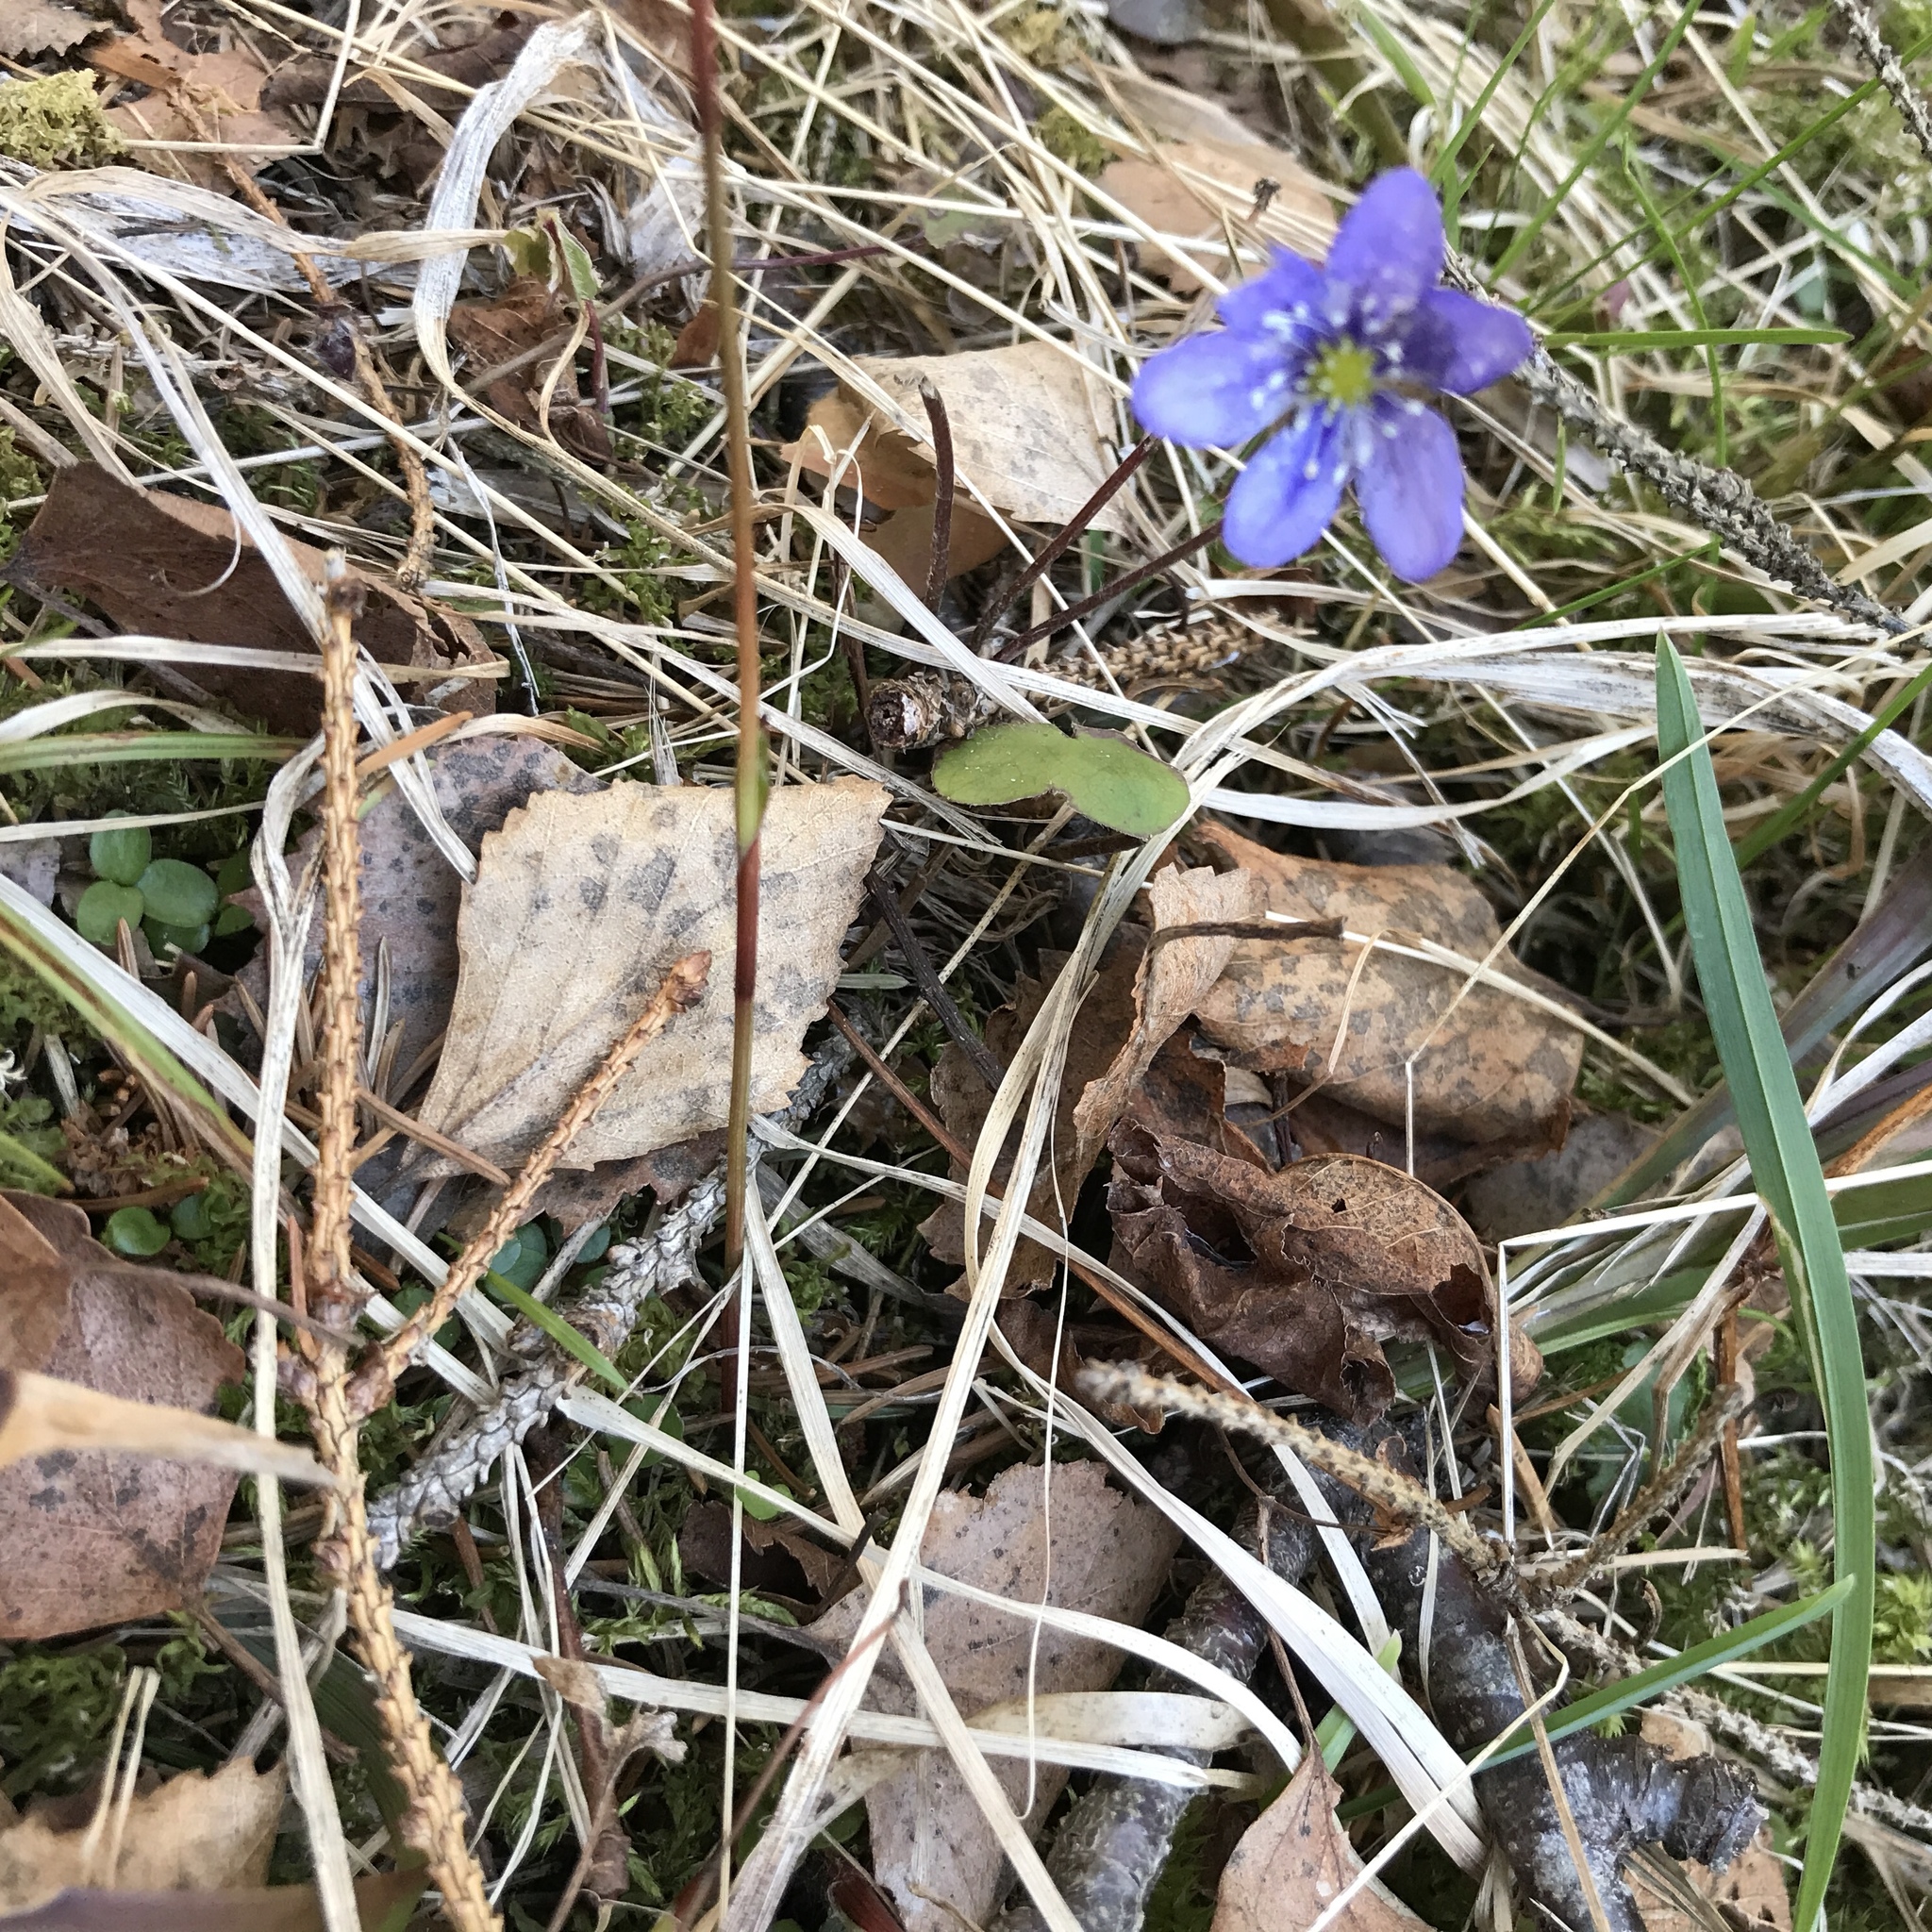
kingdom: Plantae
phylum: Tracheophyta
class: Magnoliopsida
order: Ranunculales
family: Ranunculaceae
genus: Hepatica
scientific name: Hepatica nobilis
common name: Liverleaf
